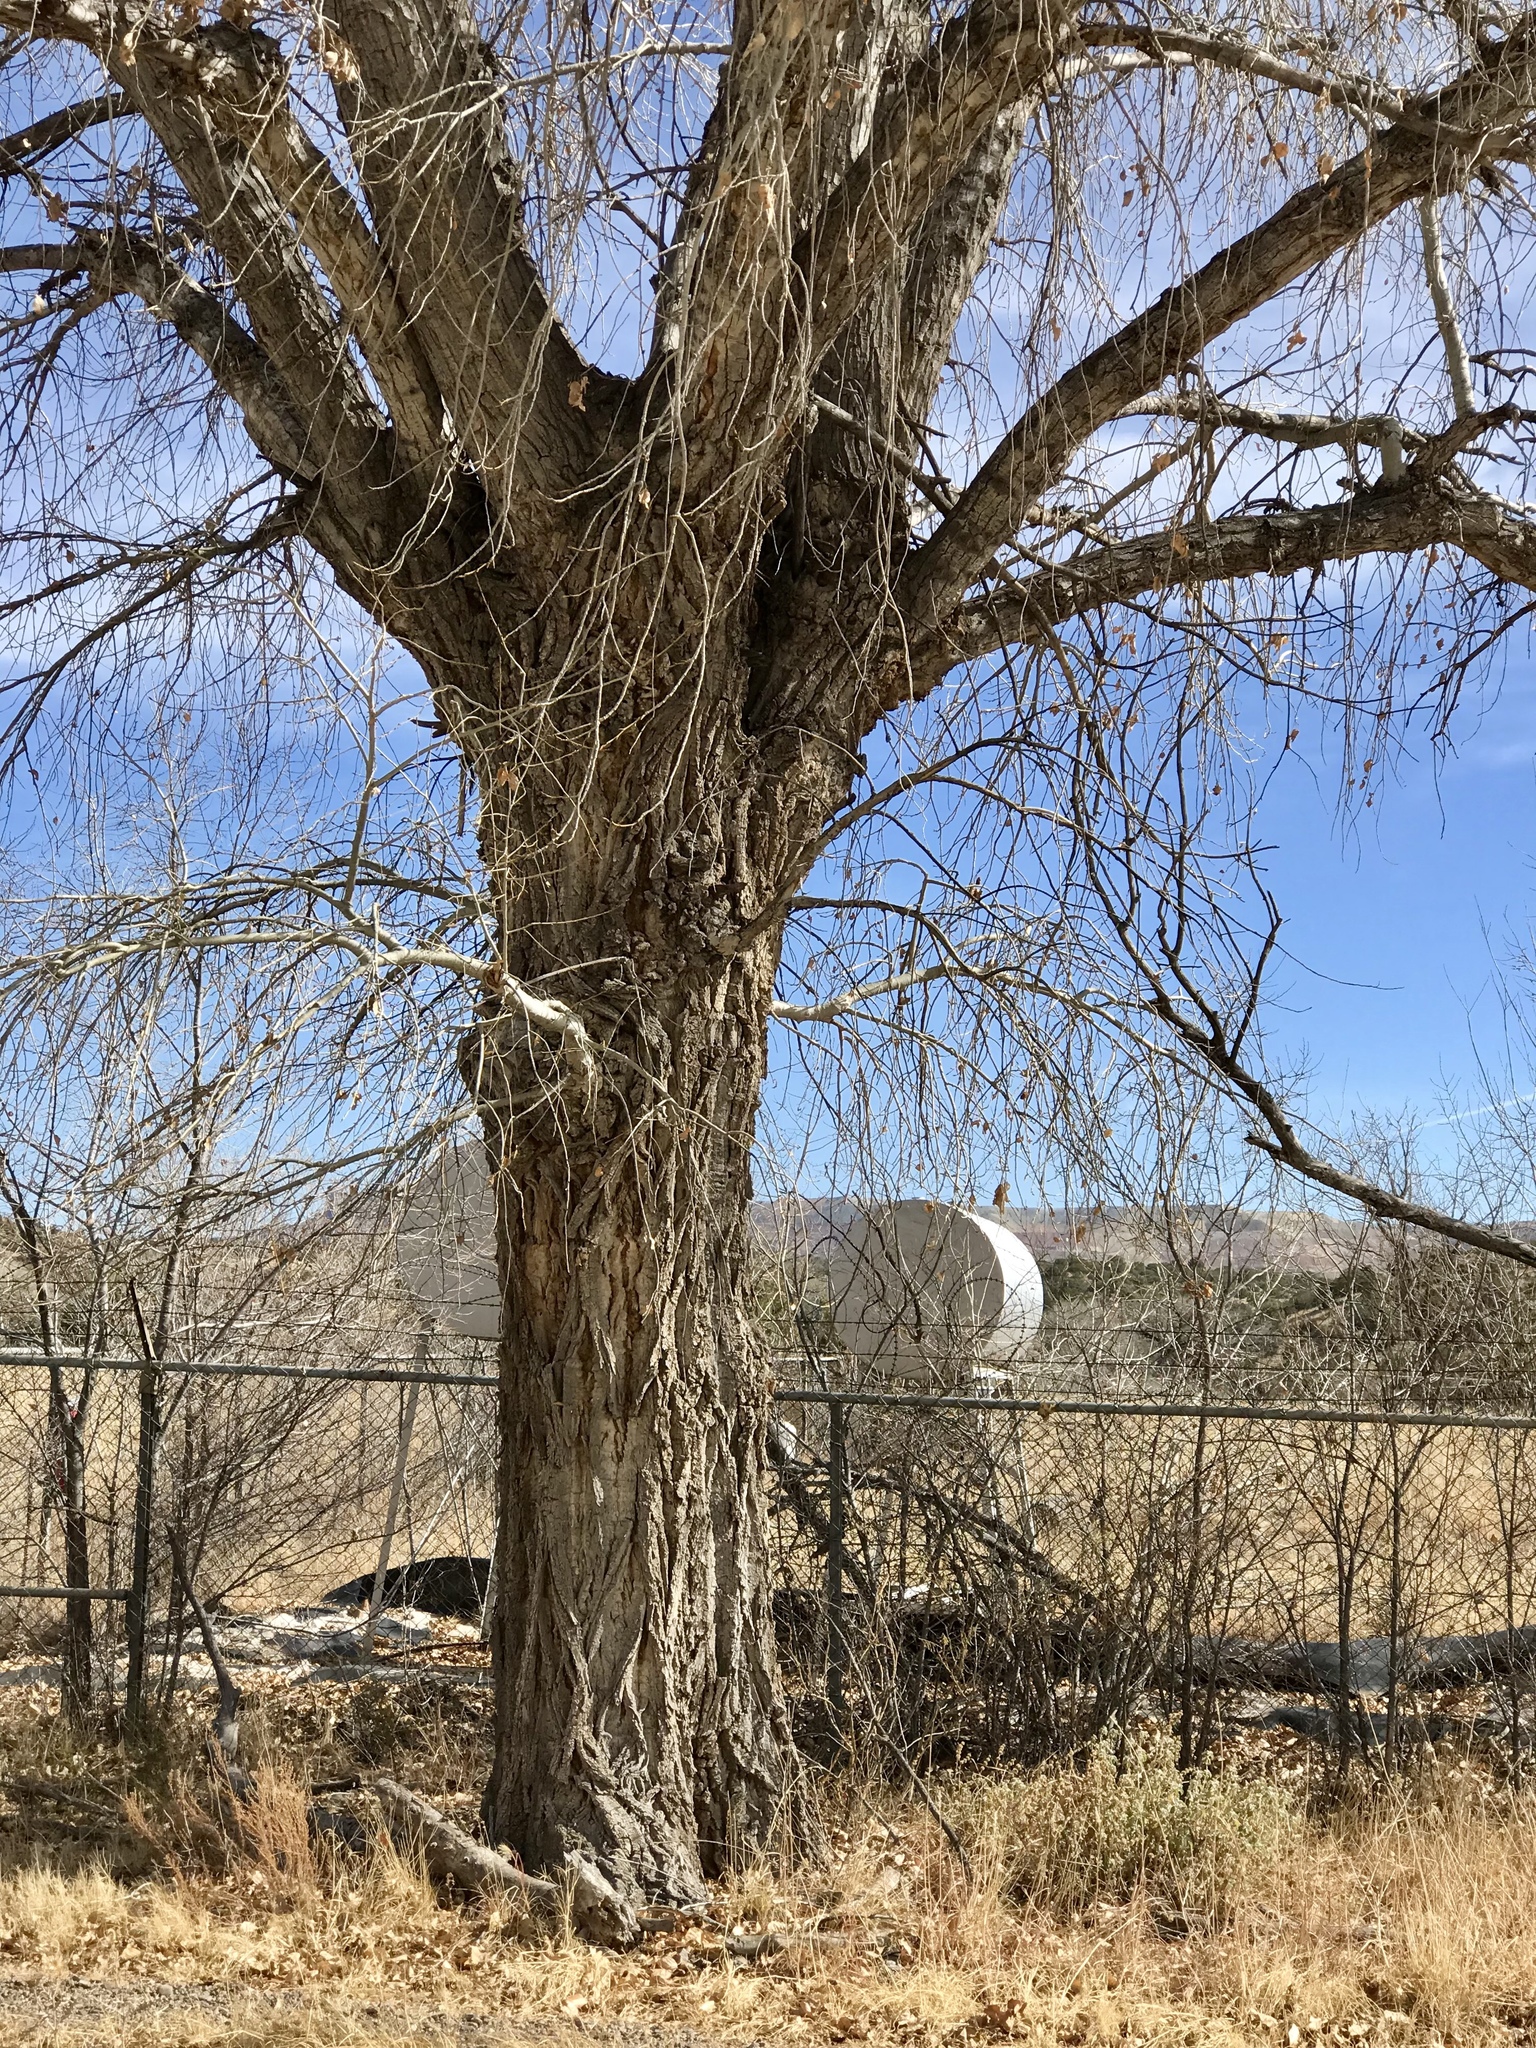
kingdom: Plantae
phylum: Tracheophyta
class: Magnoliopsida
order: Malpighiales
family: Salicaceae
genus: Populus
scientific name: Populus fremontii
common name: Fremont's cottonwood
